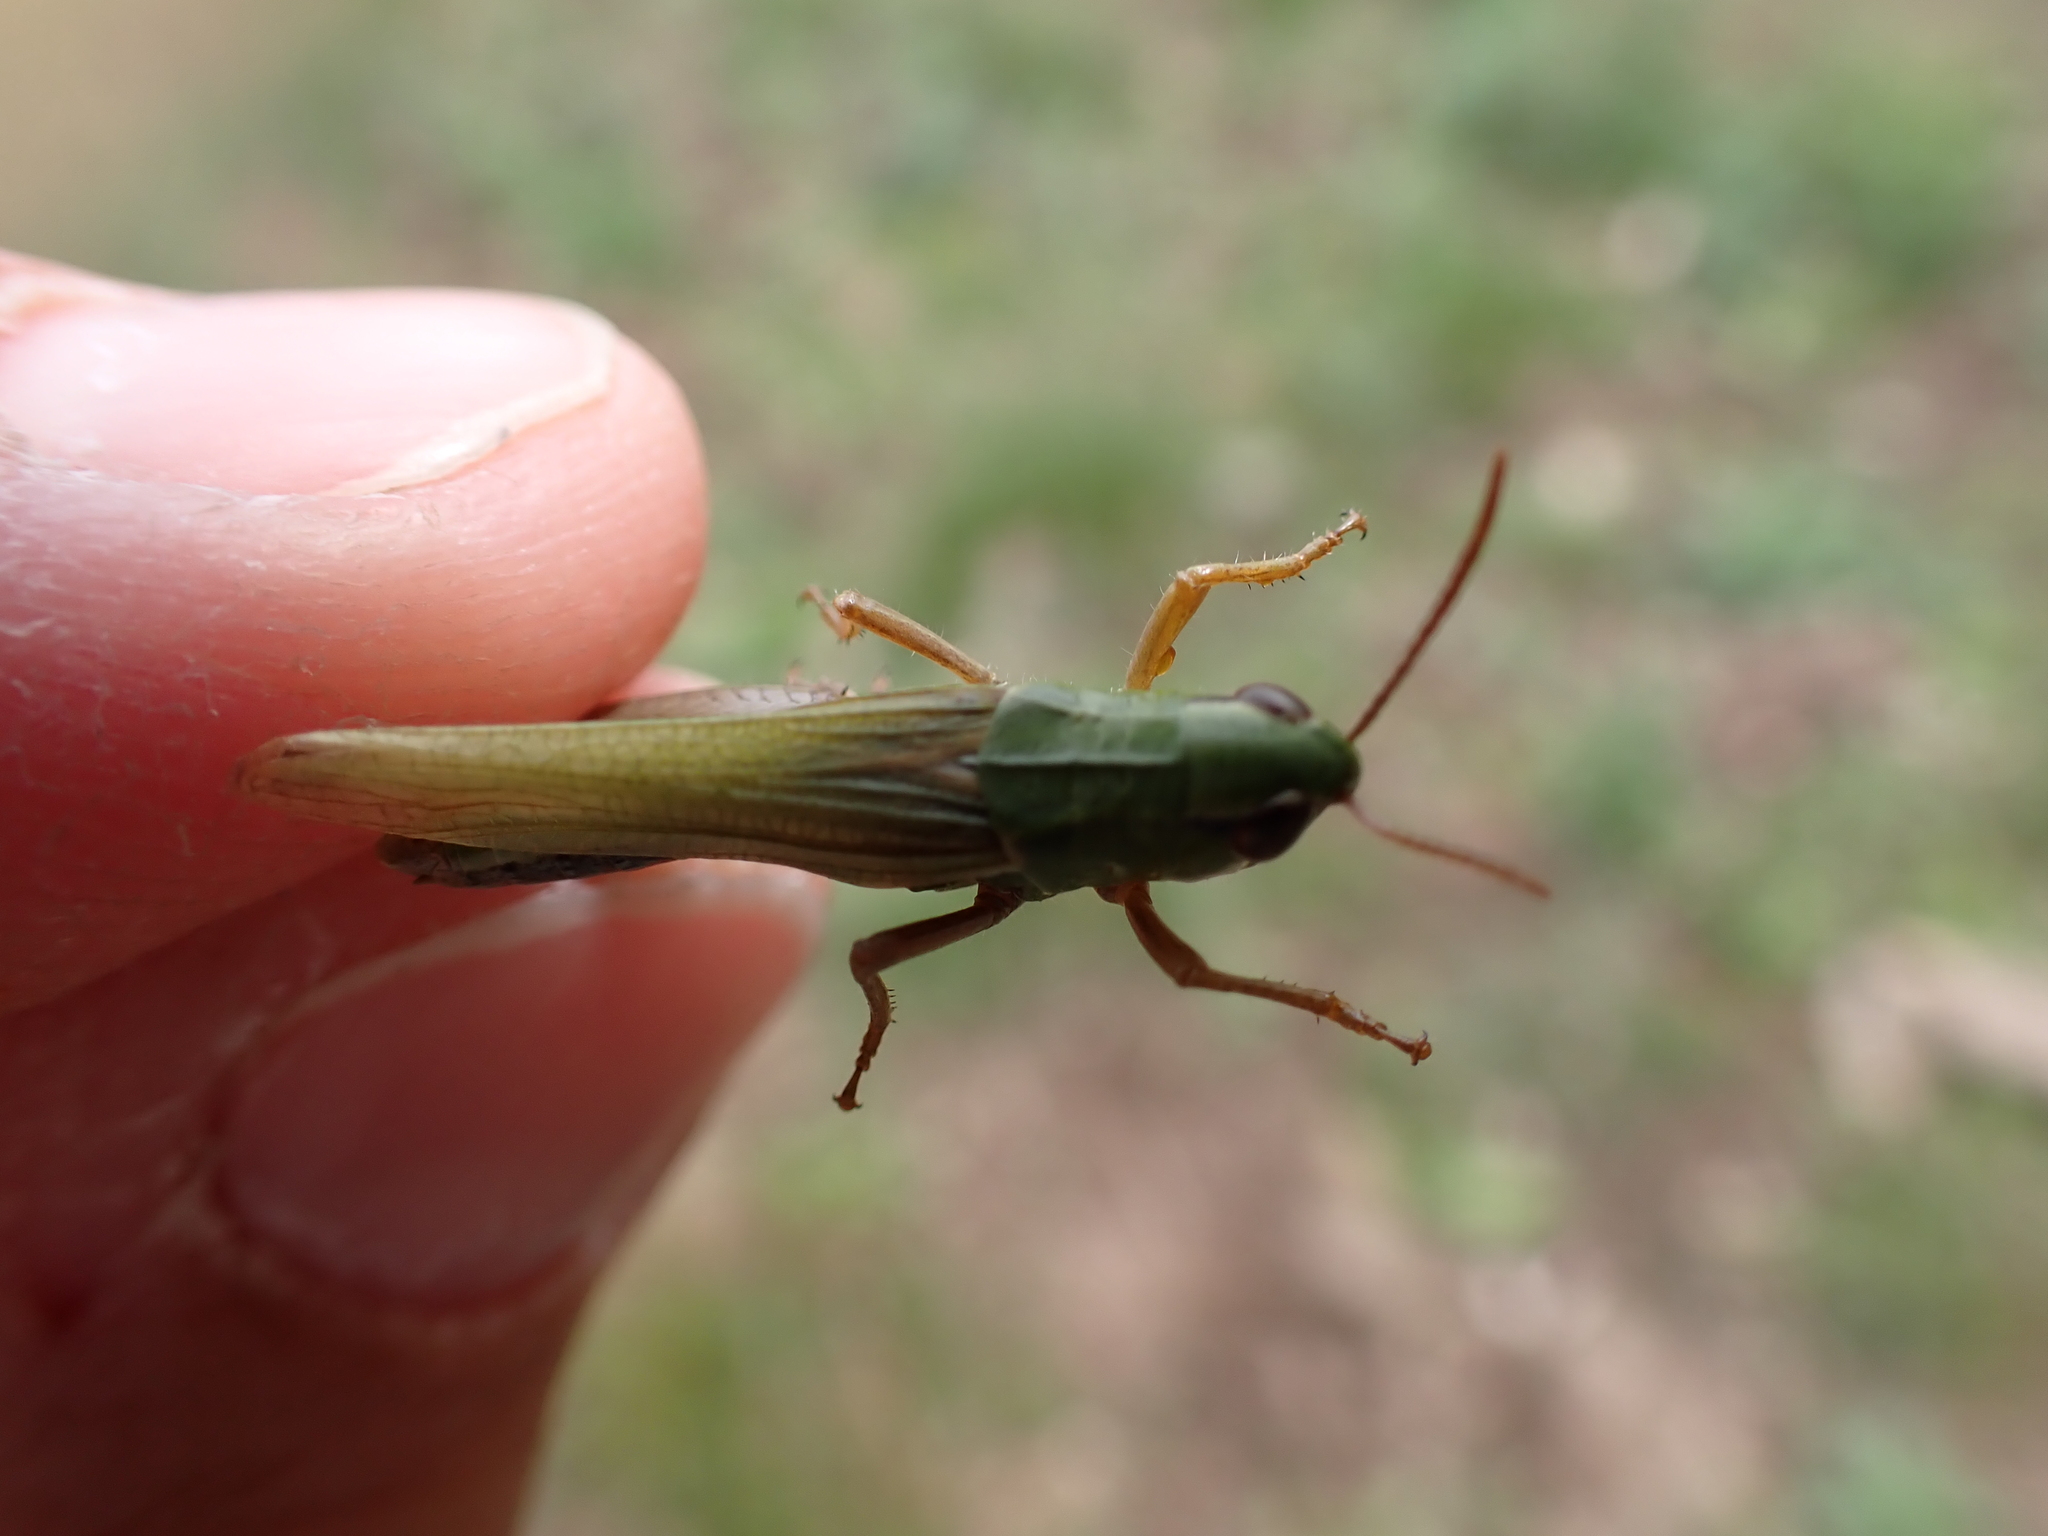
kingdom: Animalia
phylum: Arthropoda
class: Insecta
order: Orthoptera
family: Acrididae
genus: Pseudochorthippus
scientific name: Pseudochorthippus parallelus
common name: Meadow grasshopper
